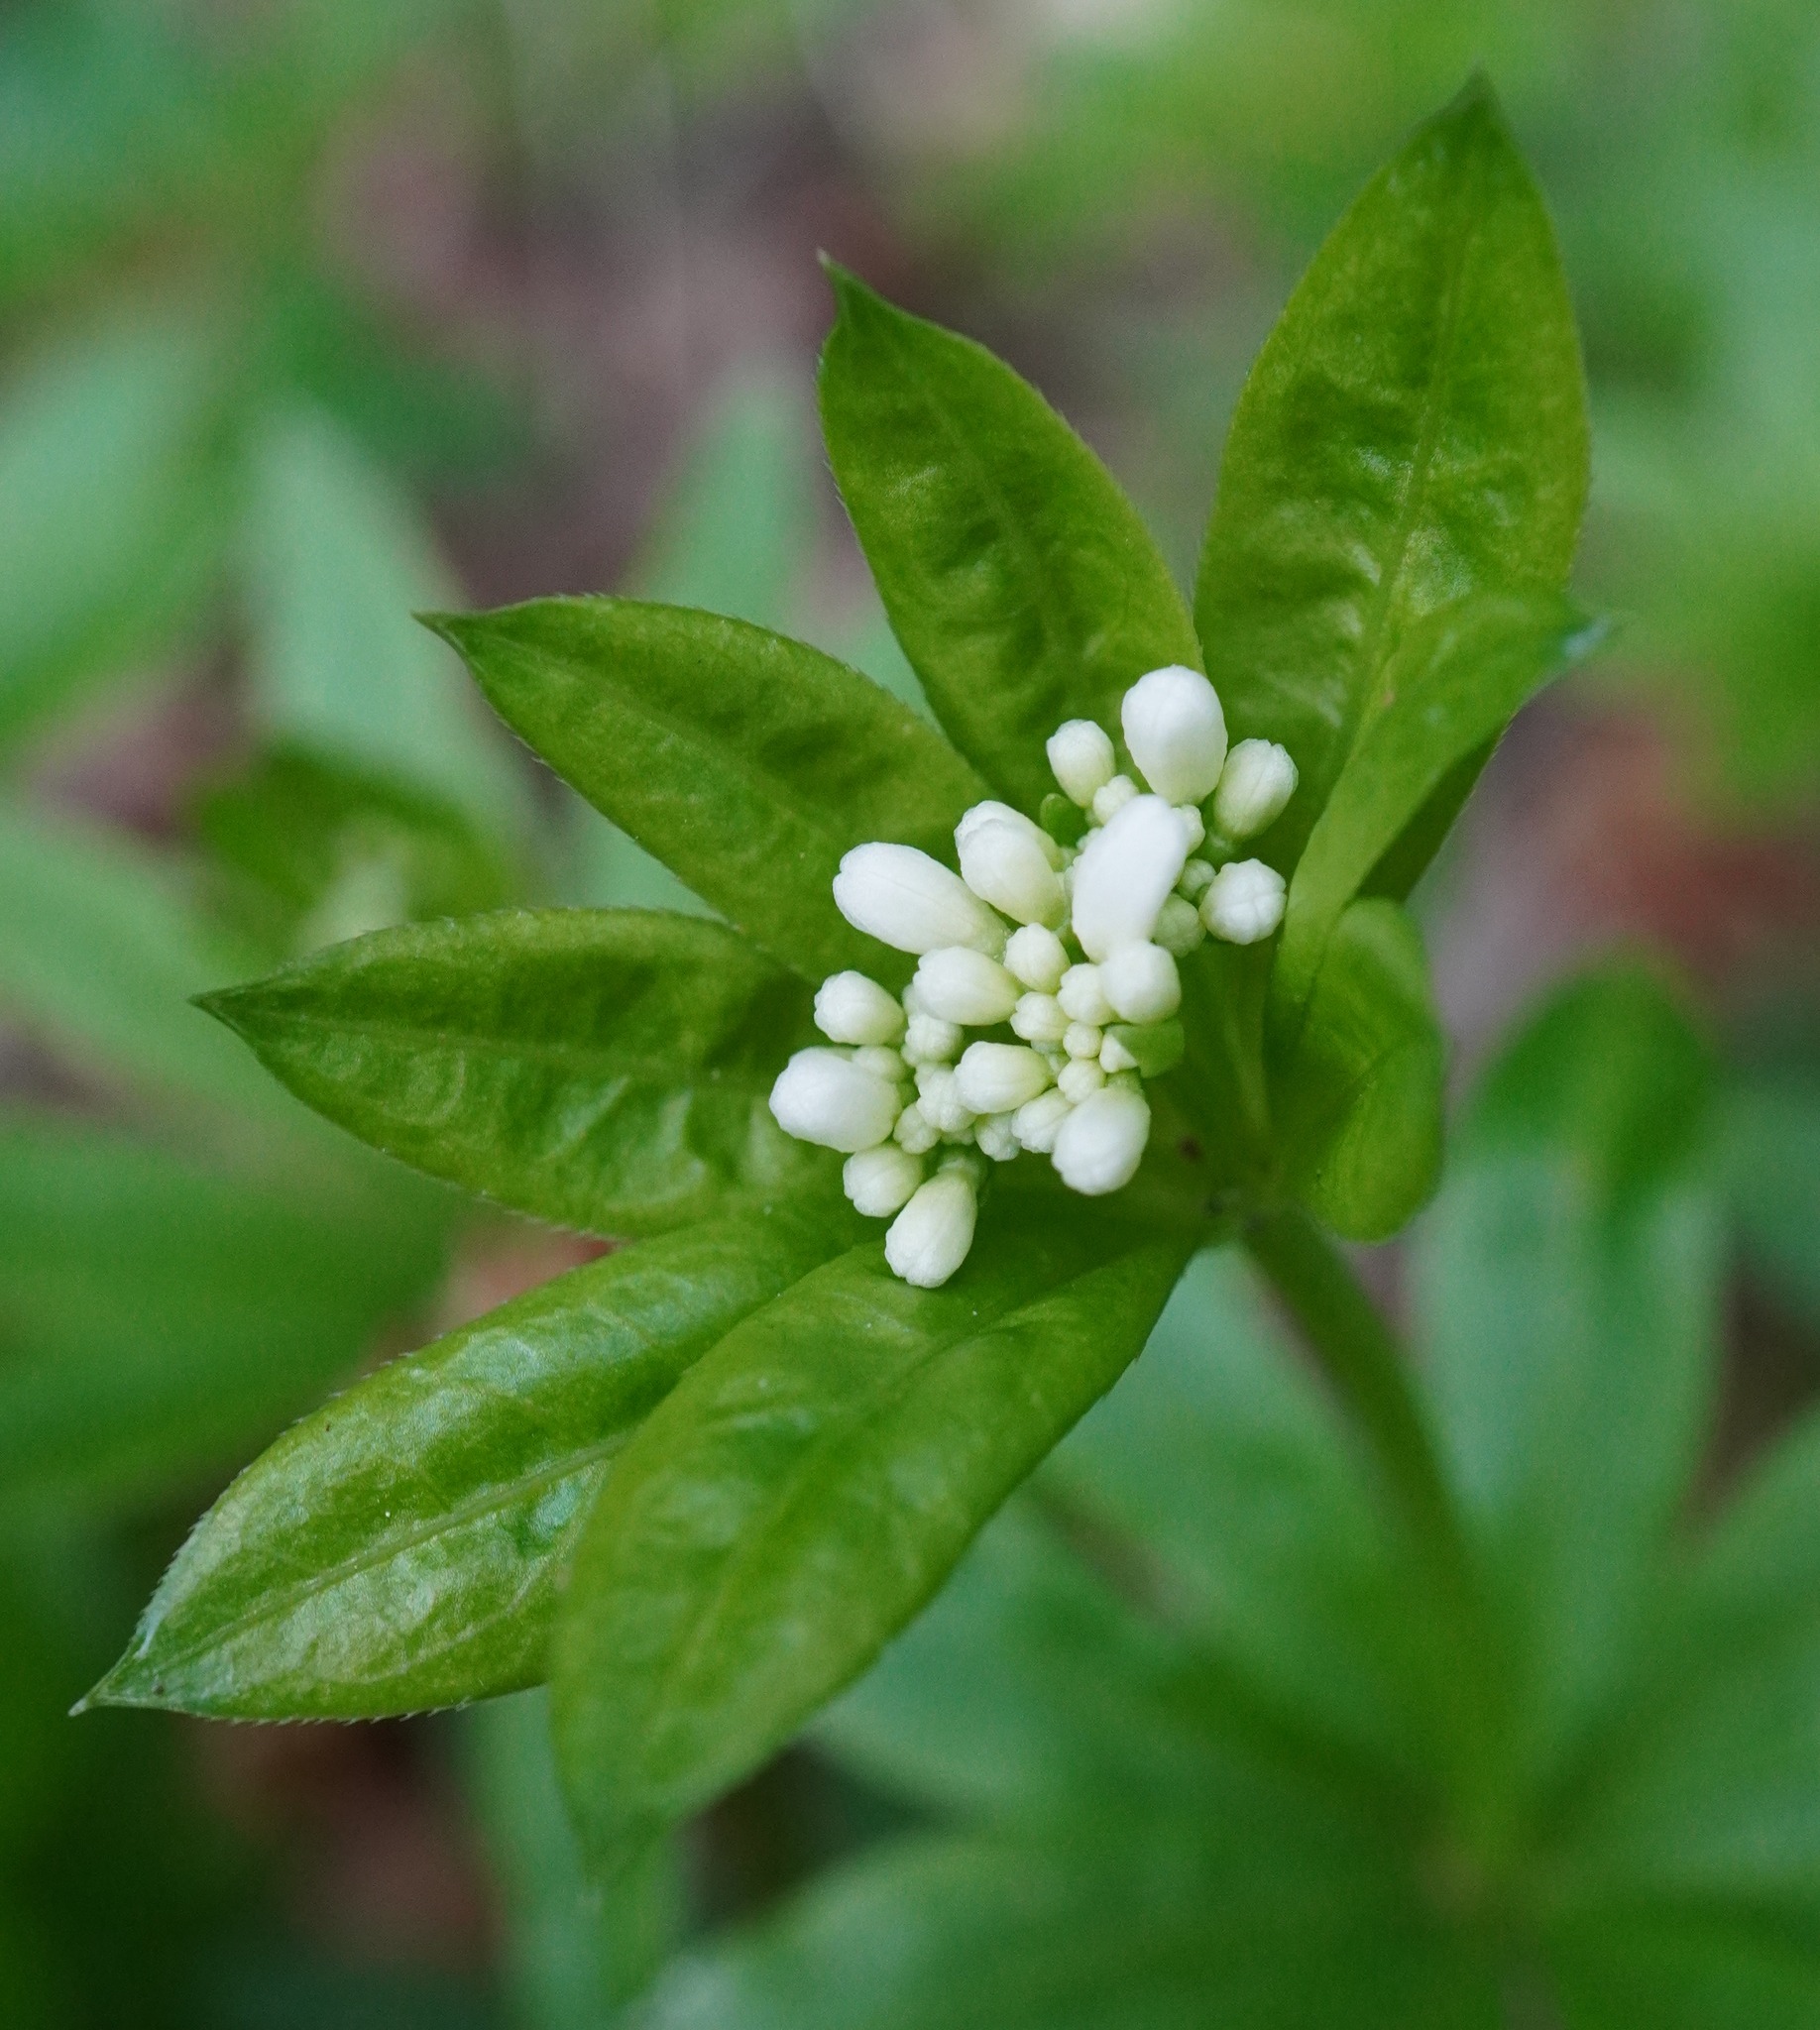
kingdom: Plantae
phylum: Tracheophyta
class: Magnoliopsida
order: Gentianales
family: Rubiaceae
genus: Galium
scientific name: Galium odoratum
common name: Sweet woodruff
